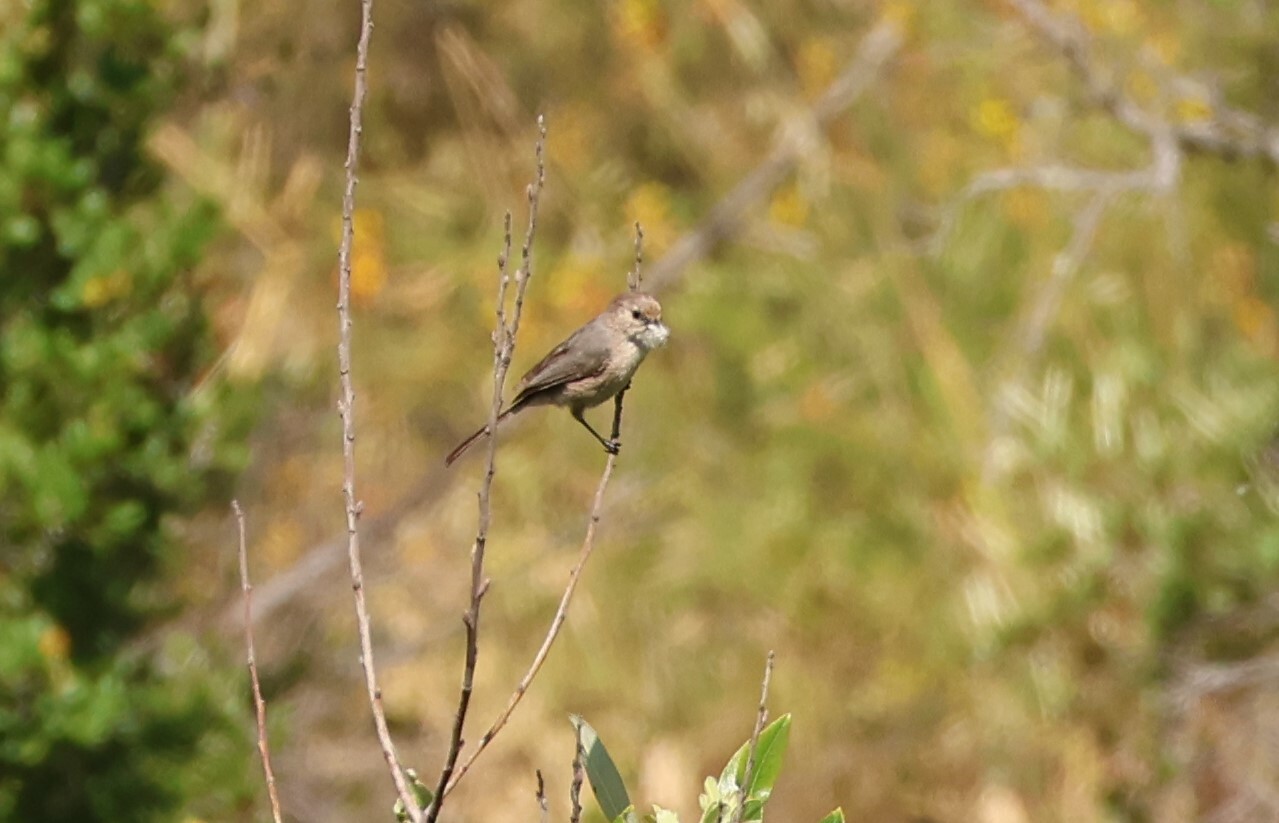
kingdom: Animalia
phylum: Chordata
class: Aves
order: Passeriformes
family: Aegithalidae
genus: Psaltriparus
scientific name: Psaltriparus minimus
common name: American bushtit
